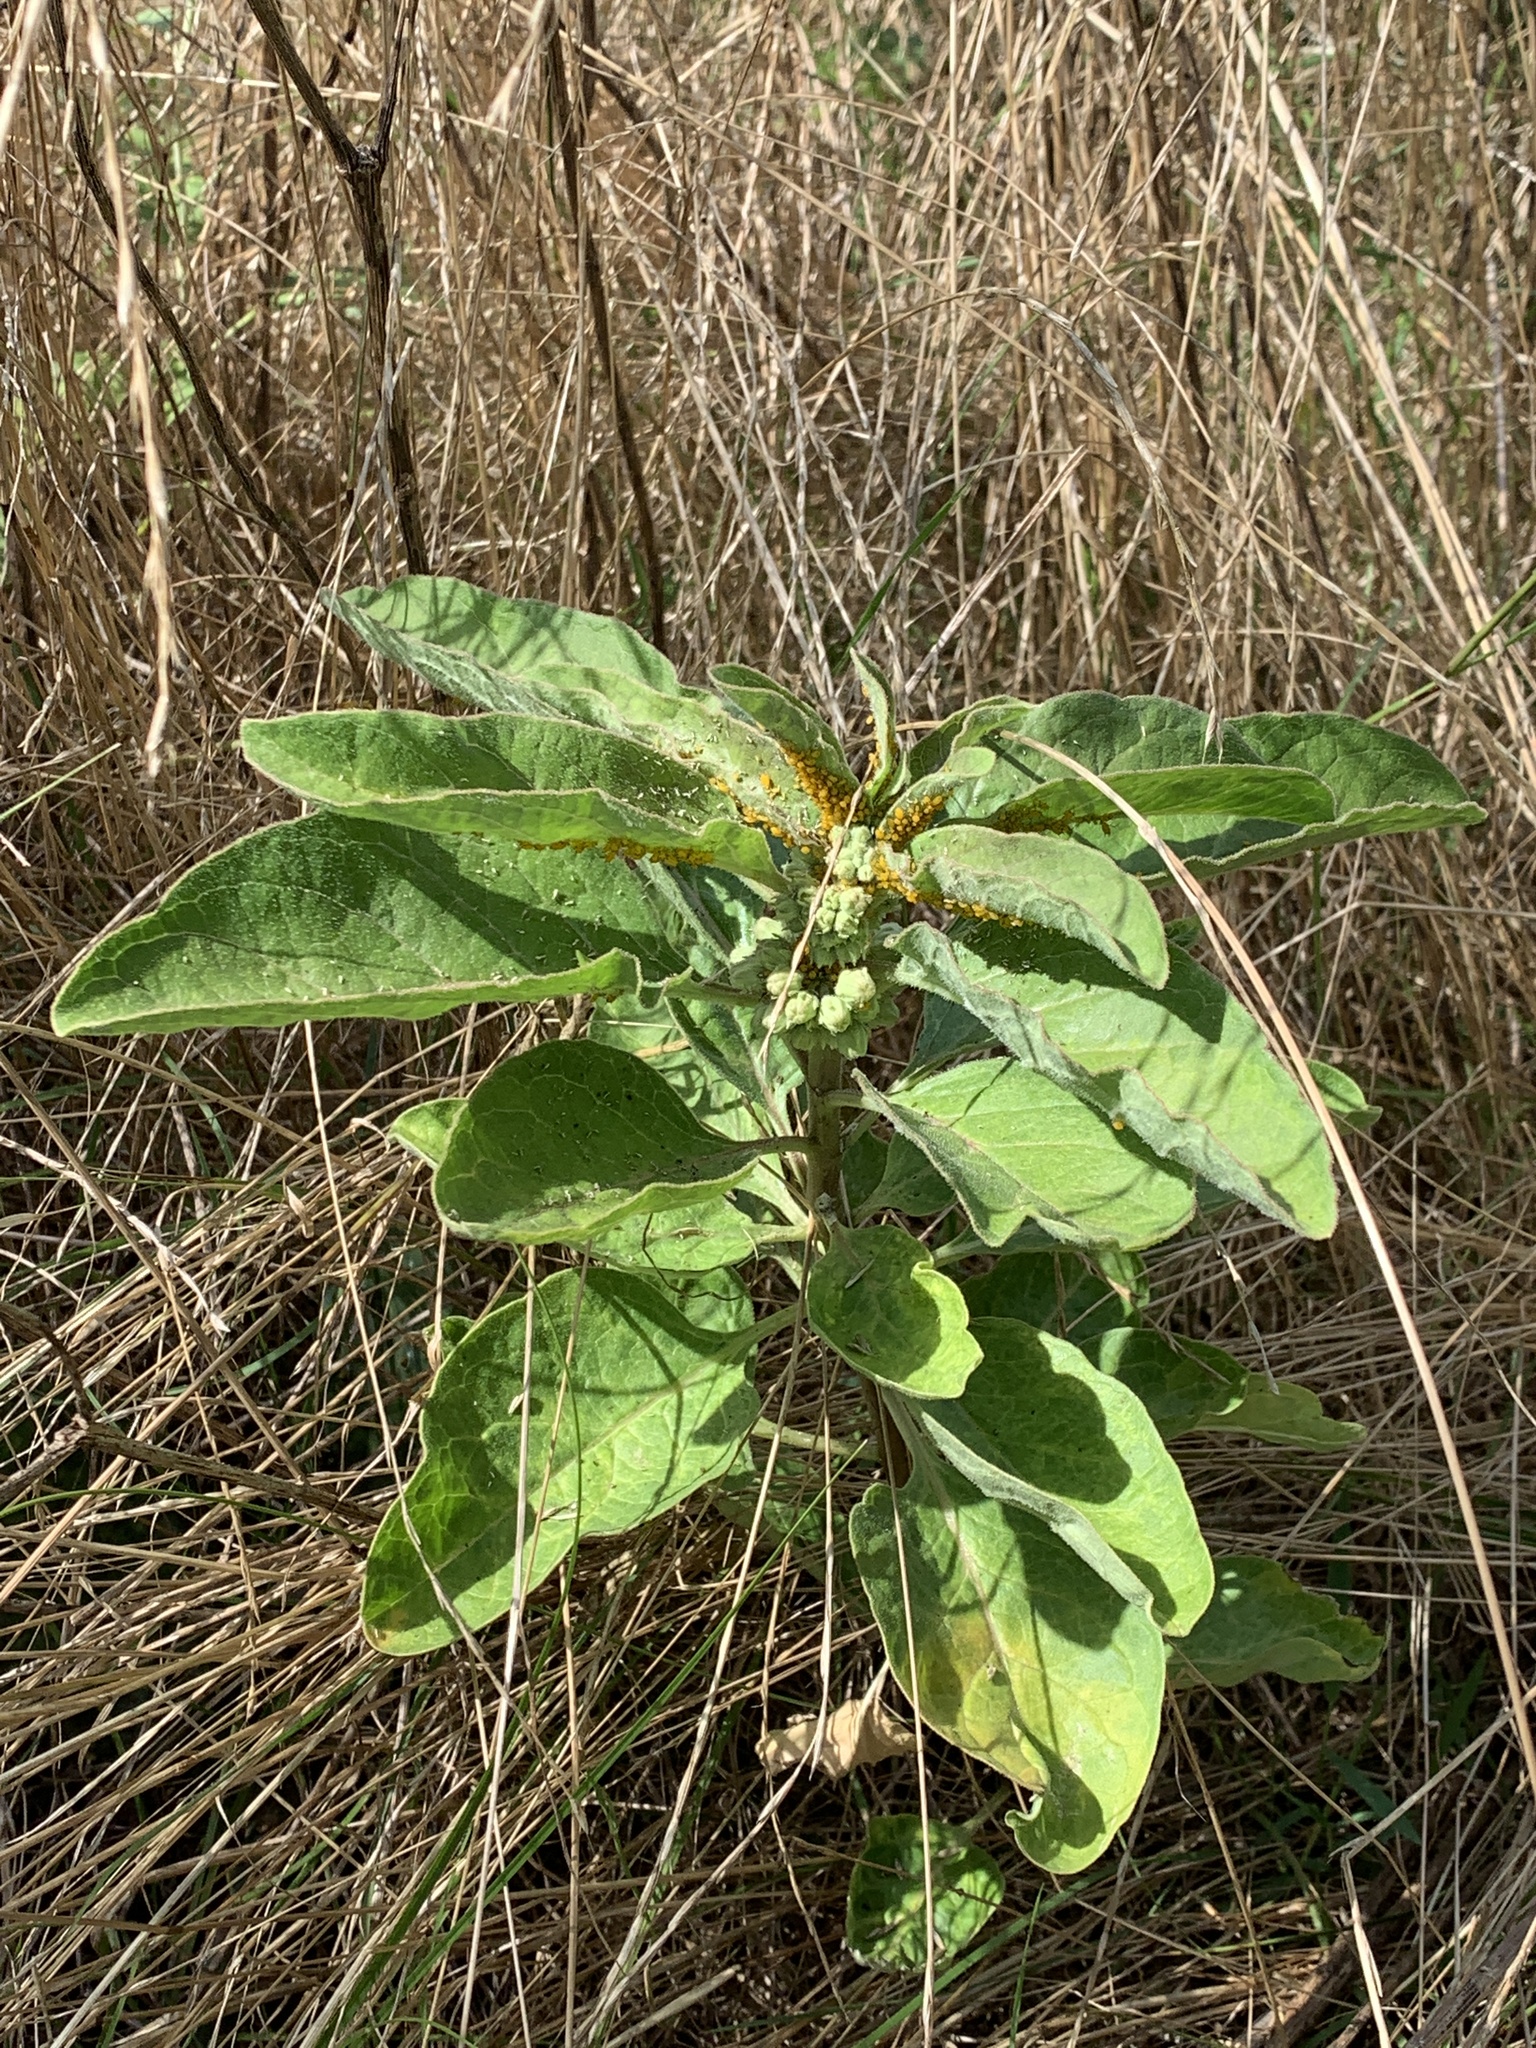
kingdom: Plantae
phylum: Tracheophyta
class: Magnoliopsida
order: Gentianales
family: Apocynaceae
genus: Asclepias
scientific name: Asclepias oenotheroides
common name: Zizotes milkweed
